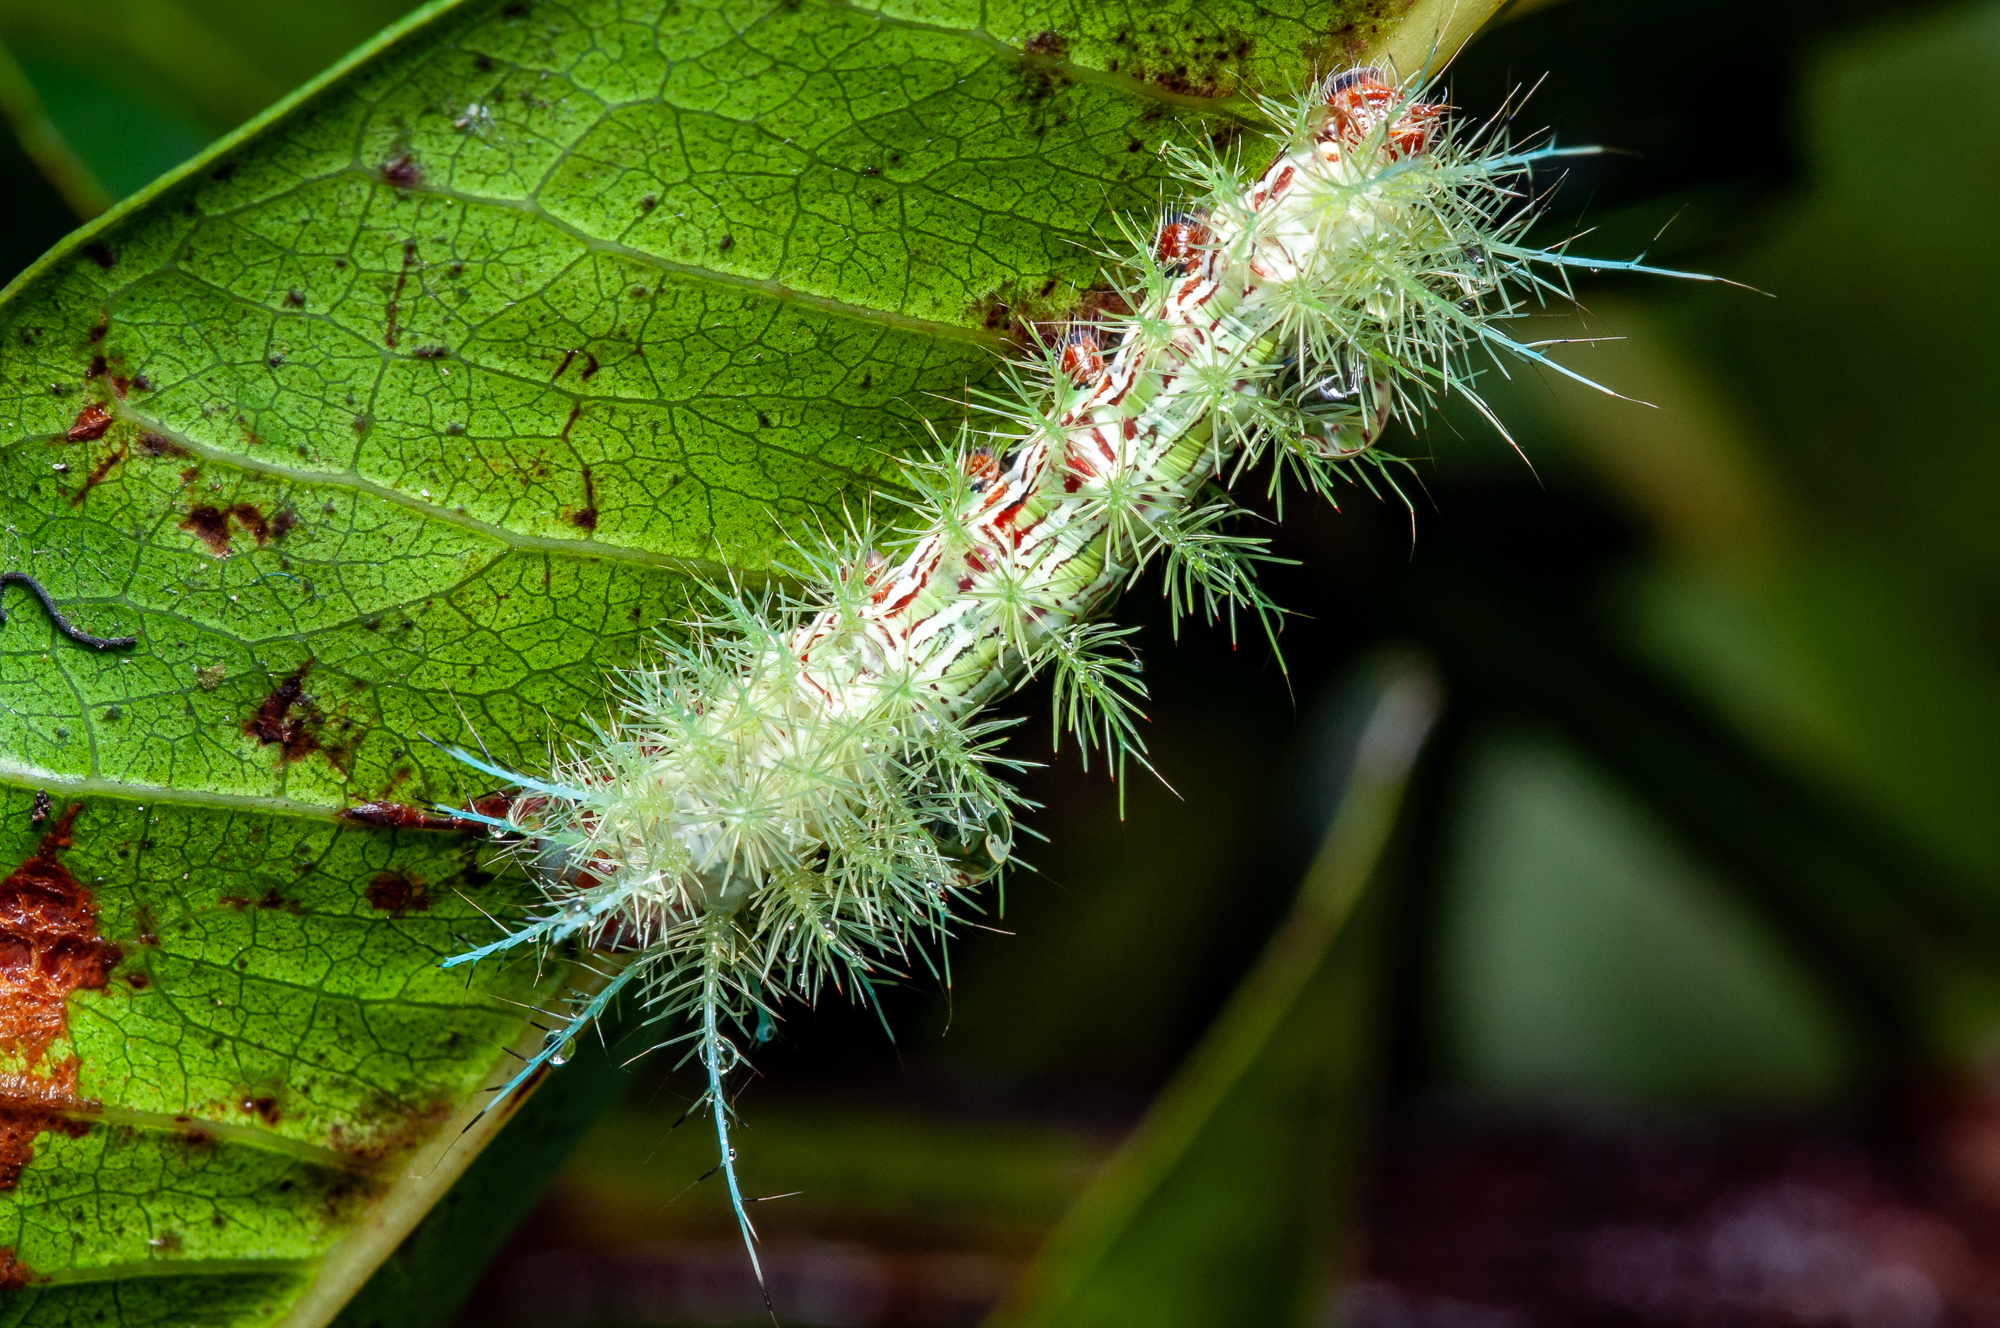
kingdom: Animalia
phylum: Arthropoda
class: Insecta
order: Lepidoptera
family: Saturniidae
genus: Automeris
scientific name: Automeris zugana
